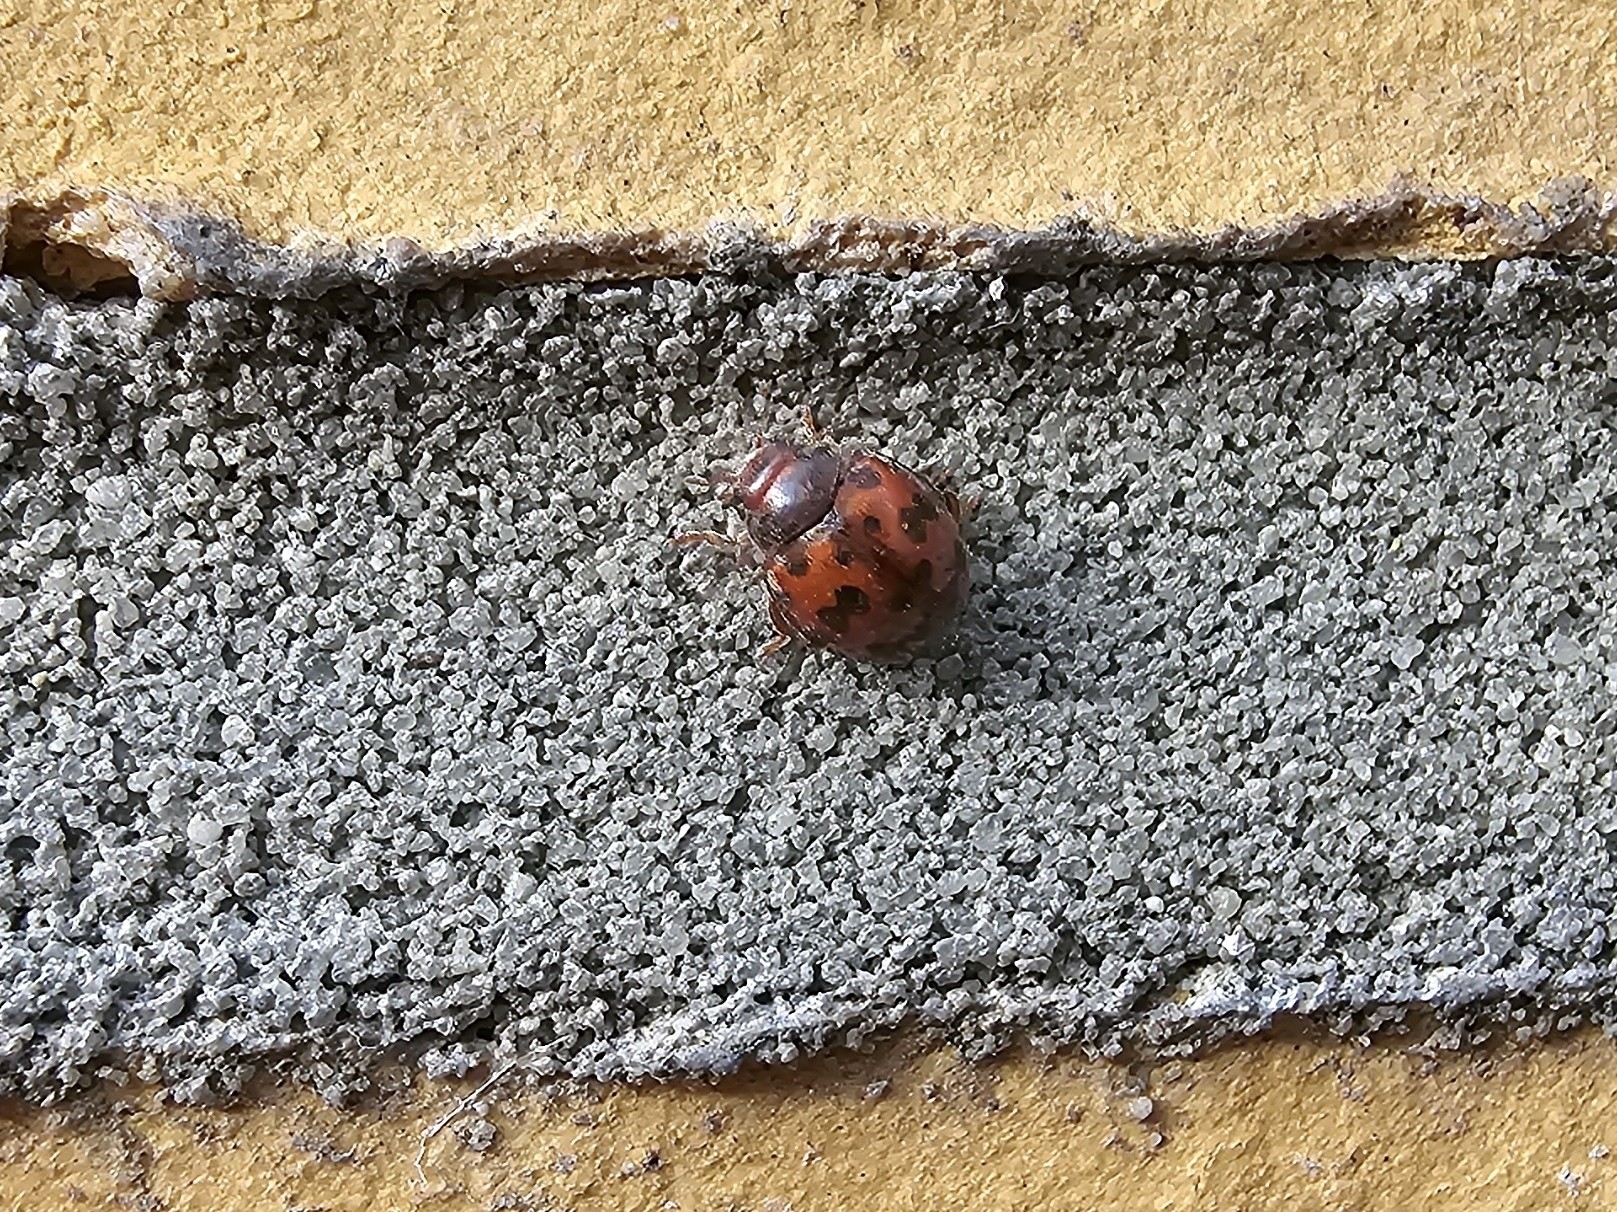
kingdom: Animalia
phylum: Arthropoda
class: Insecta
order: Coleoptera
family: Coccinellidae
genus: Subcoccinella
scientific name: Subcoccinella vigintiquatuorpunctata
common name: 24-spot ladybird
